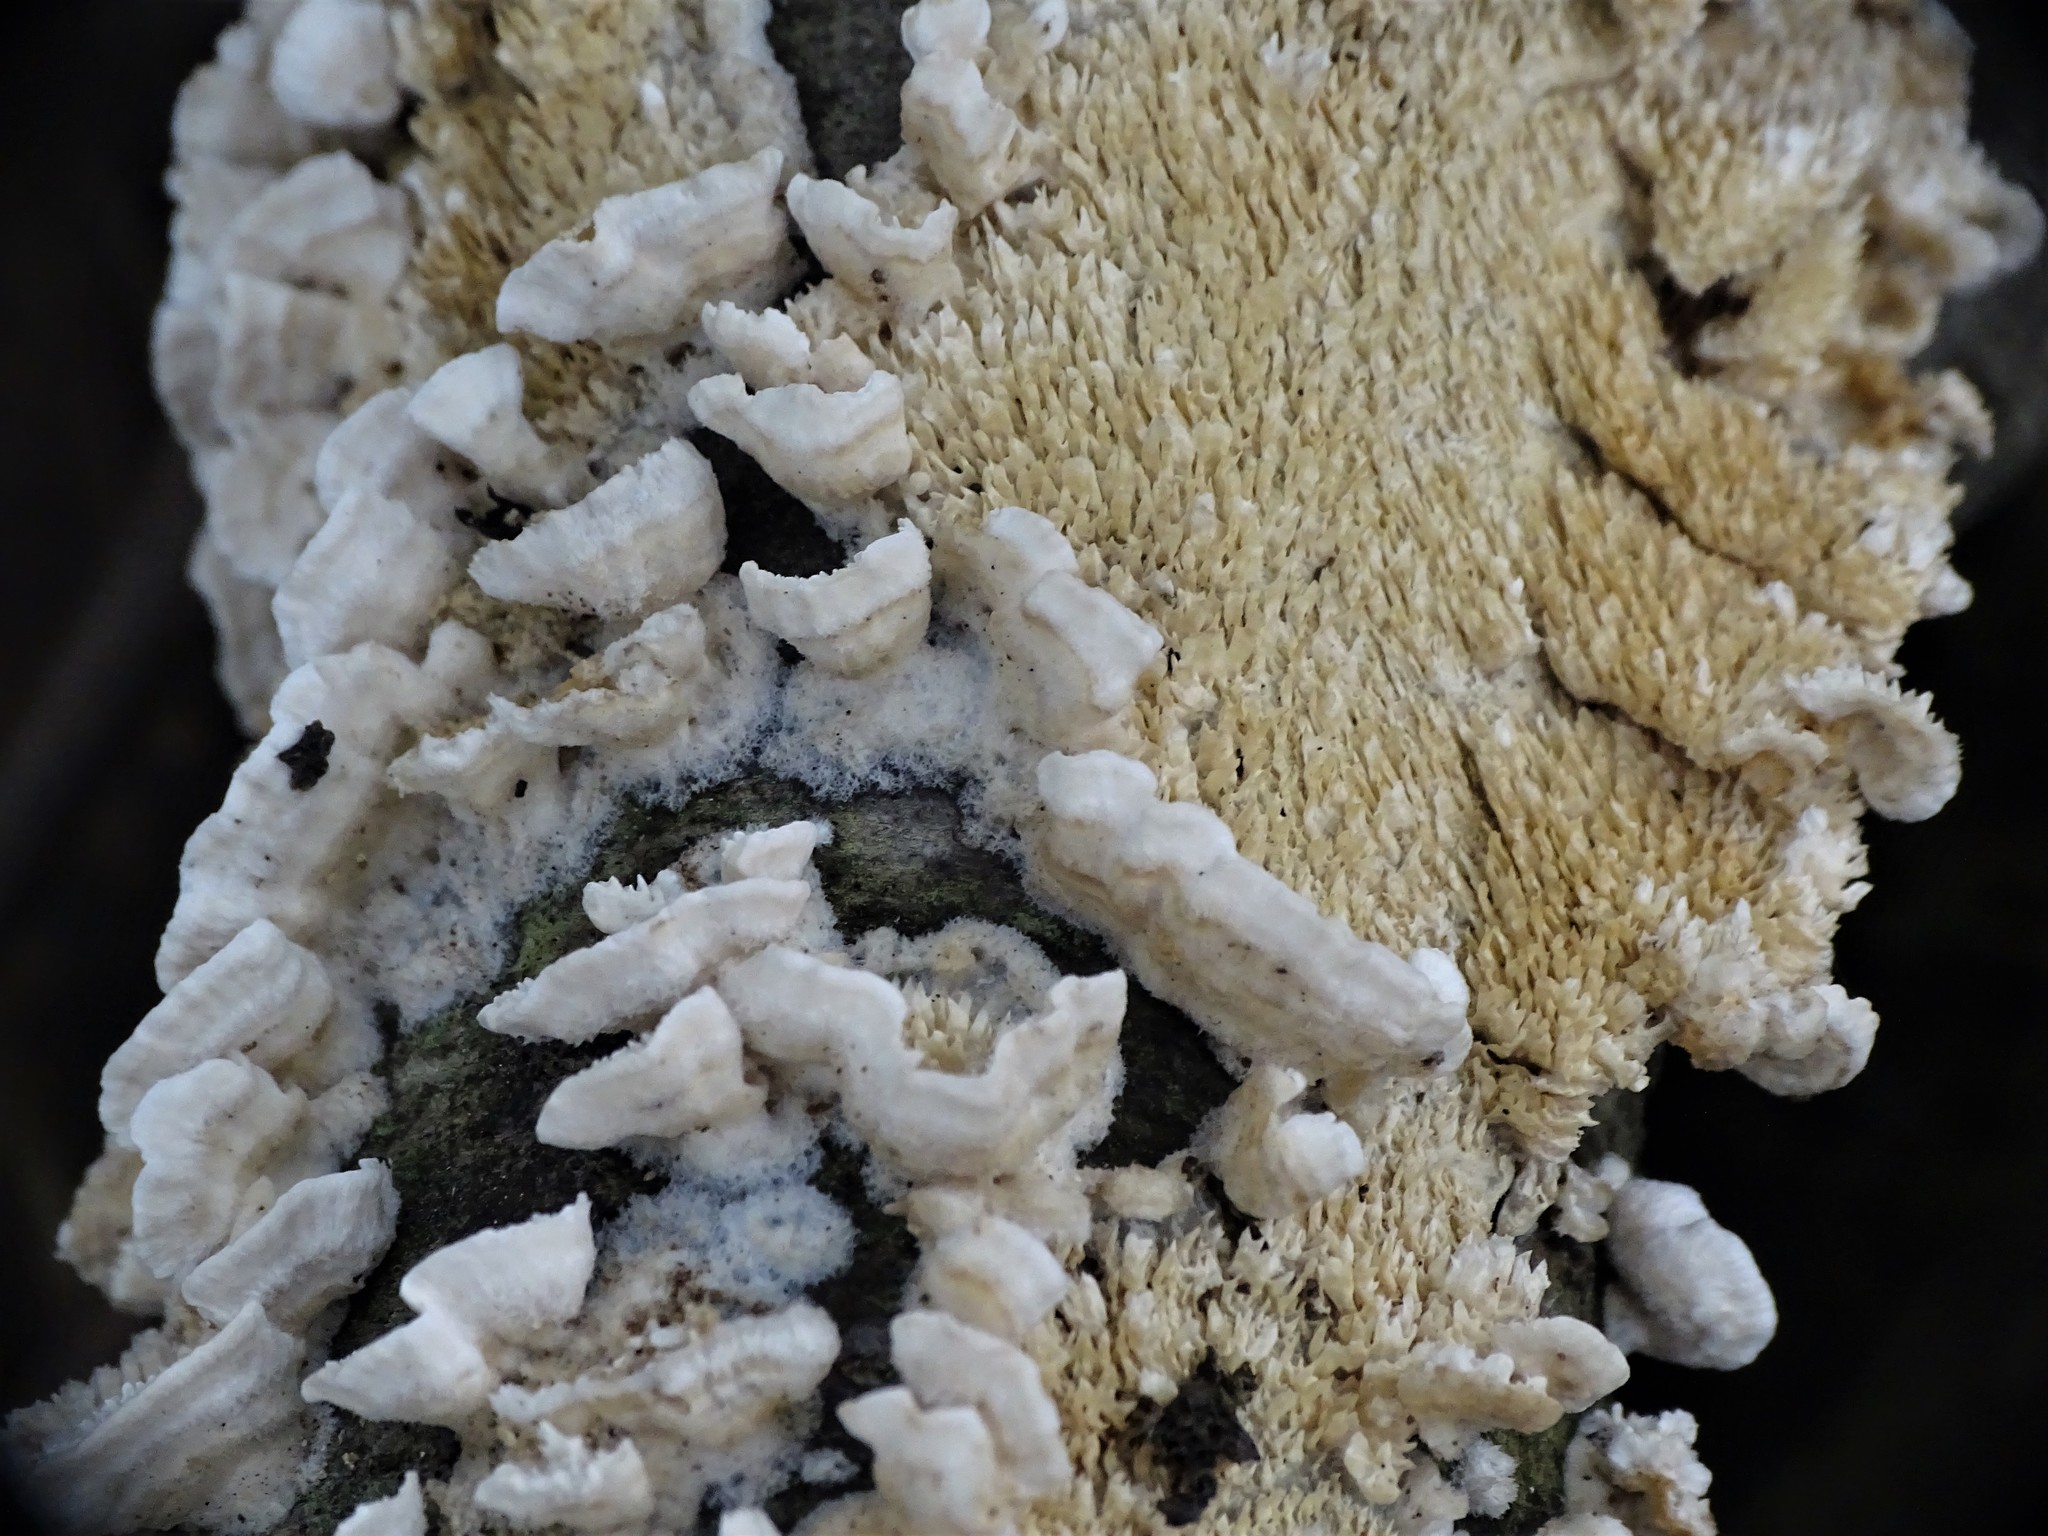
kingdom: Fungi
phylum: Basidiomycota
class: Agaricomycetes
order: Polyporales
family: Irpicaceae
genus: Irpex
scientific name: Irpex lacteus
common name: Milk-white toothed polypore
